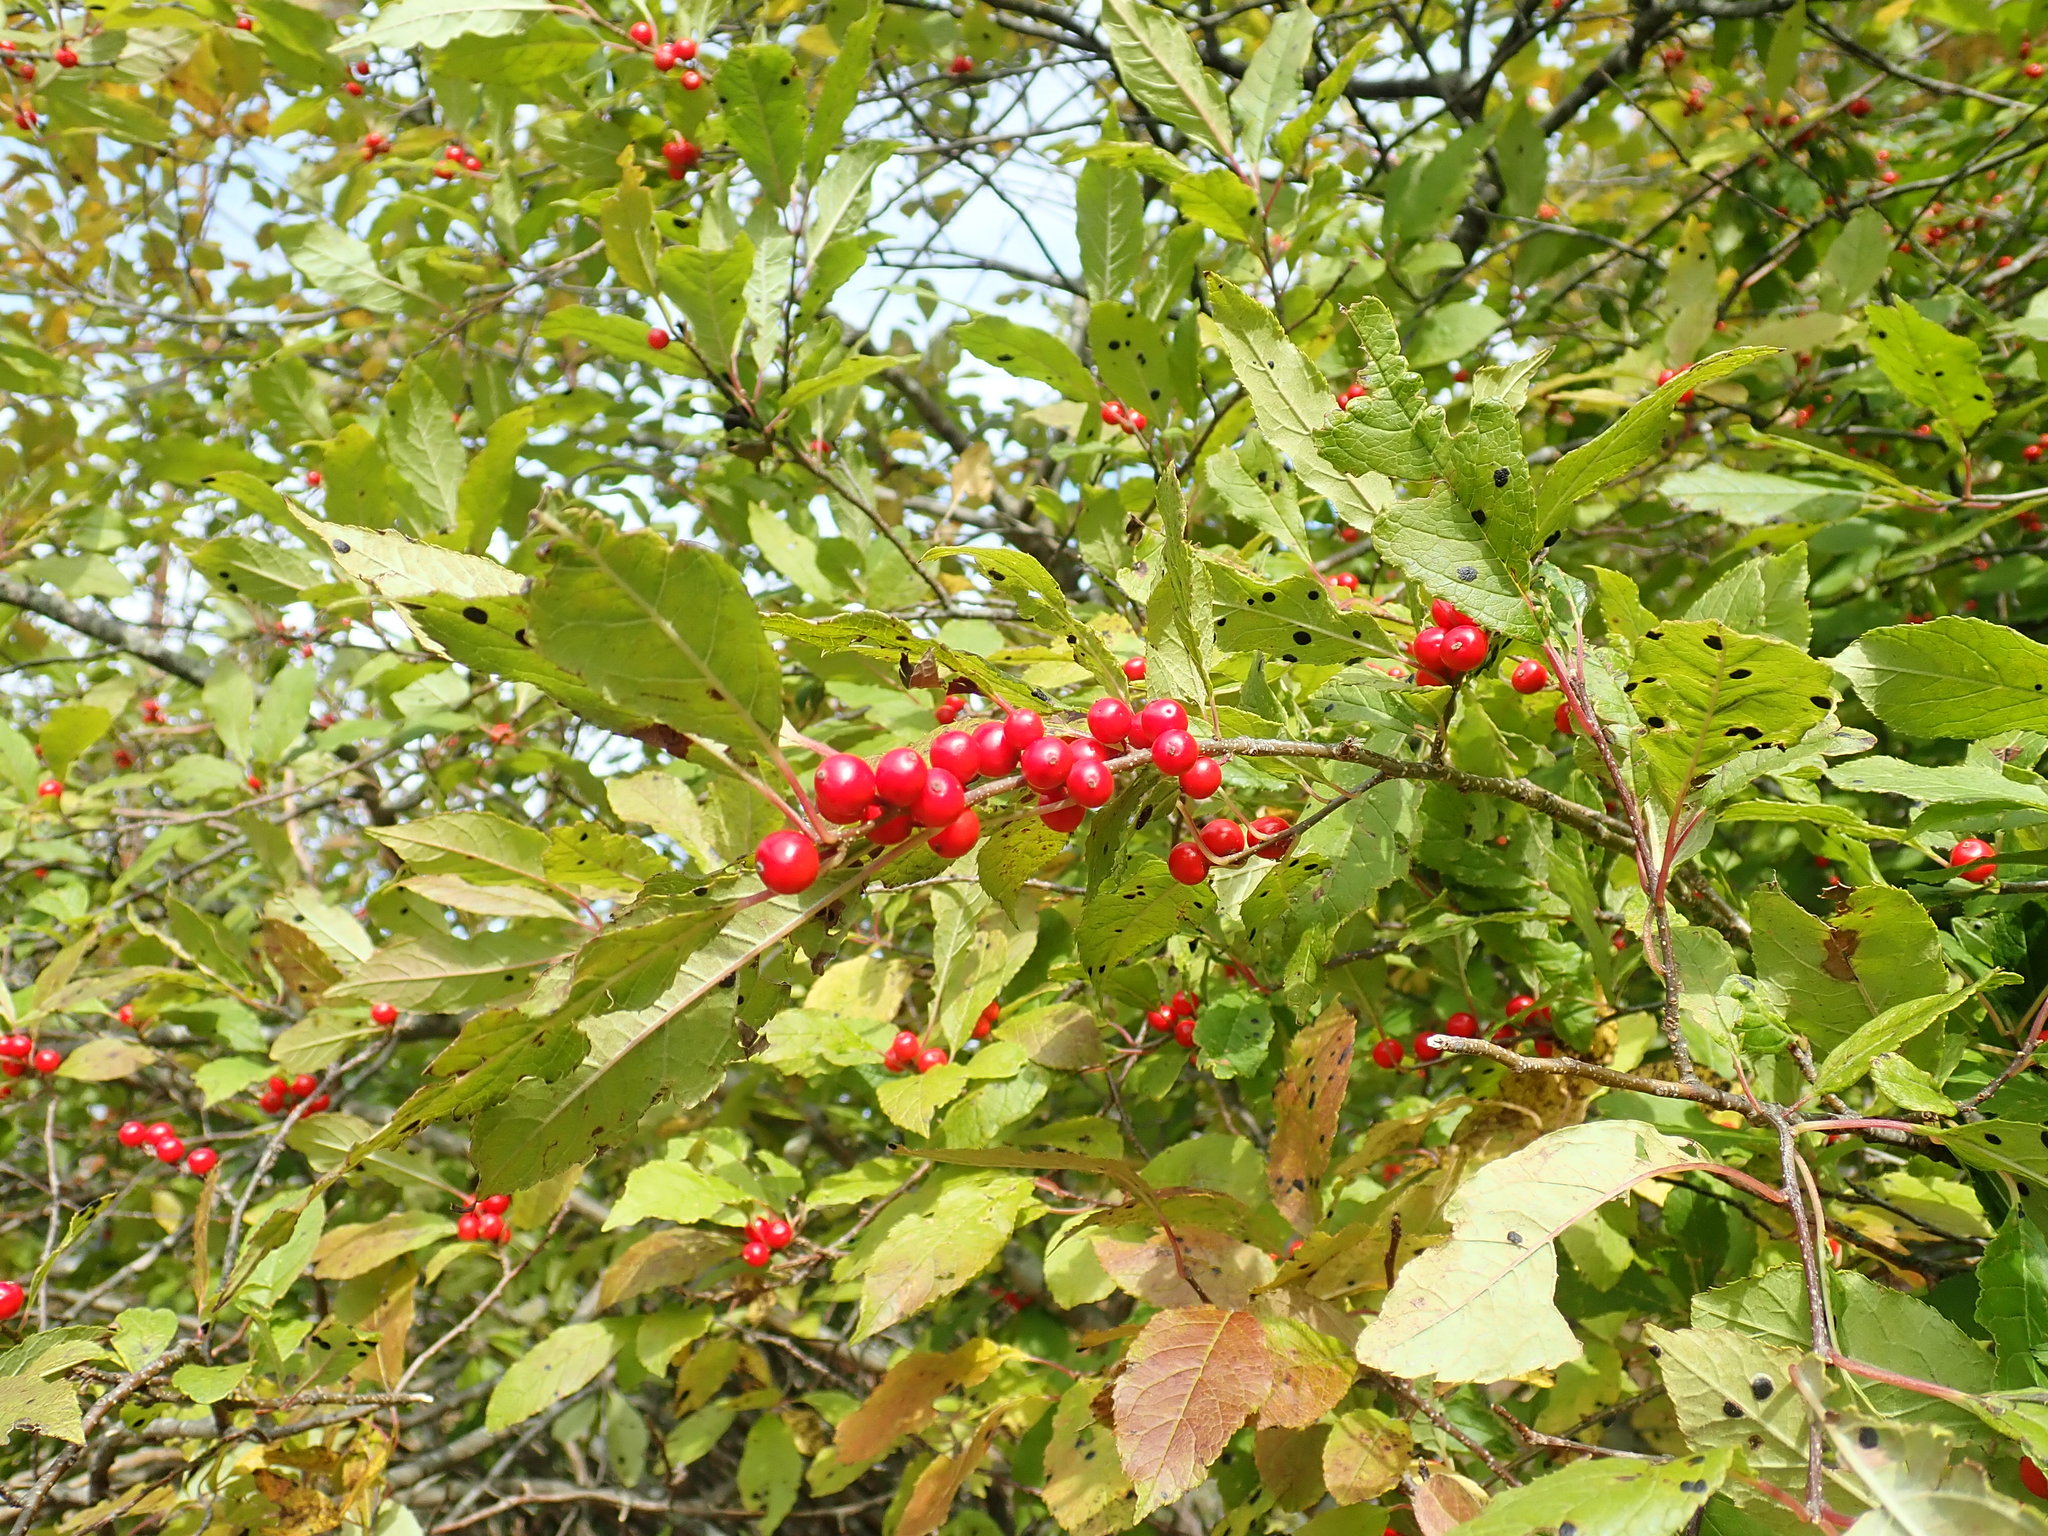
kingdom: Plantae
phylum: Tracheophyta
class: Magnoliopsida
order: Aquifoliales
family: Aquifoliaceae
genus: Ilex
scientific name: Ilex verticillata
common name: Virginia winterberry
